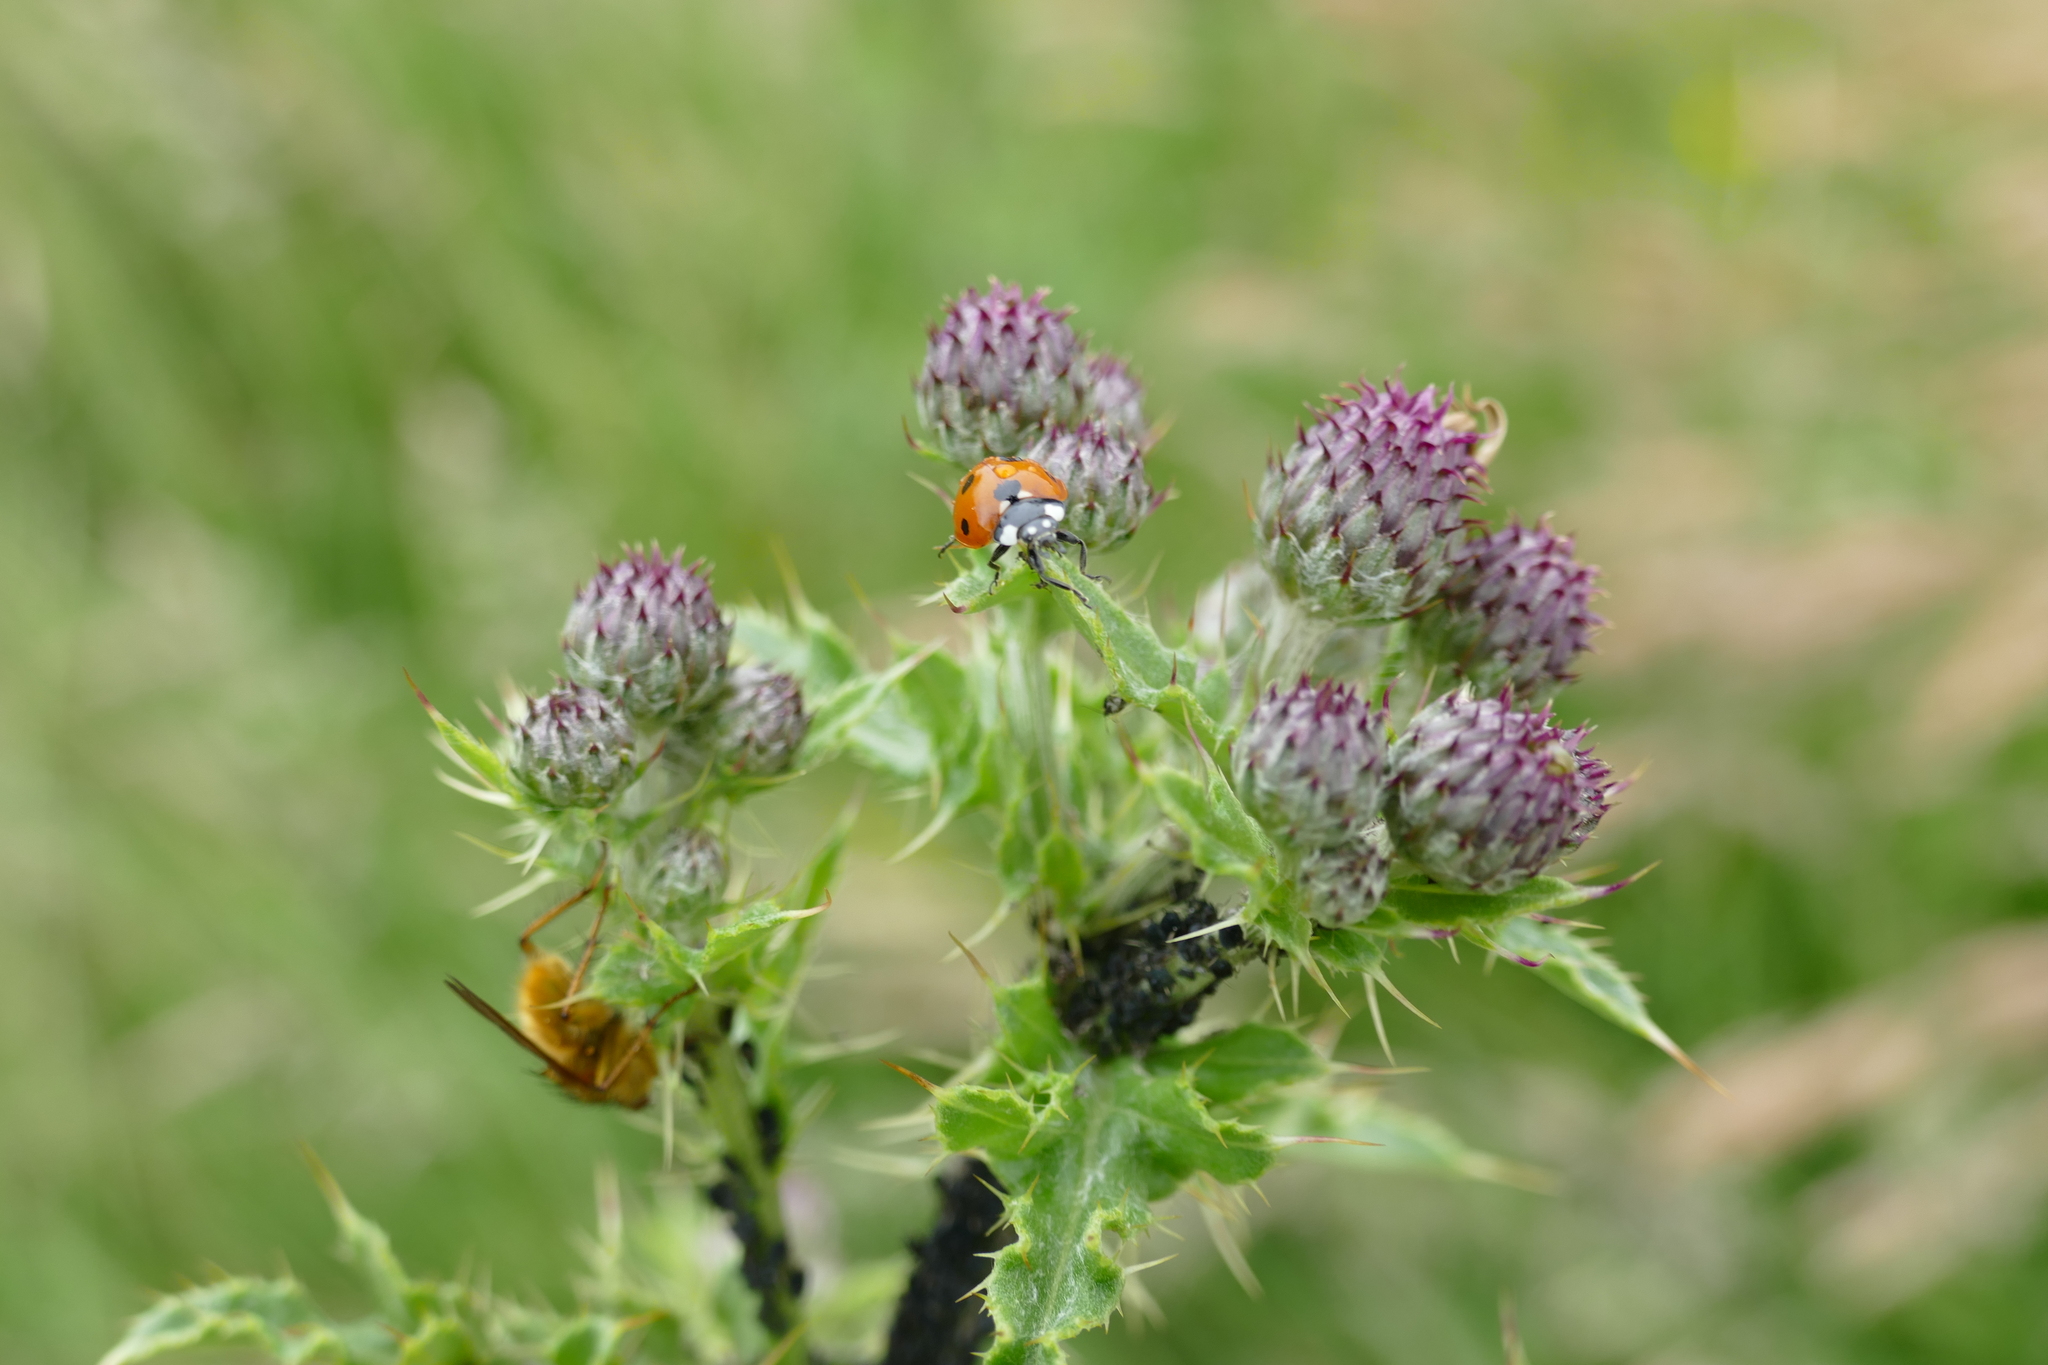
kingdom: Animalia
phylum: Arthropoda
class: Insecta
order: Coleoptera
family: Coccinellidae
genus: Coccinella
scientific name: Coccinella septempunctata
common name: Sevenspotted lady beetle
